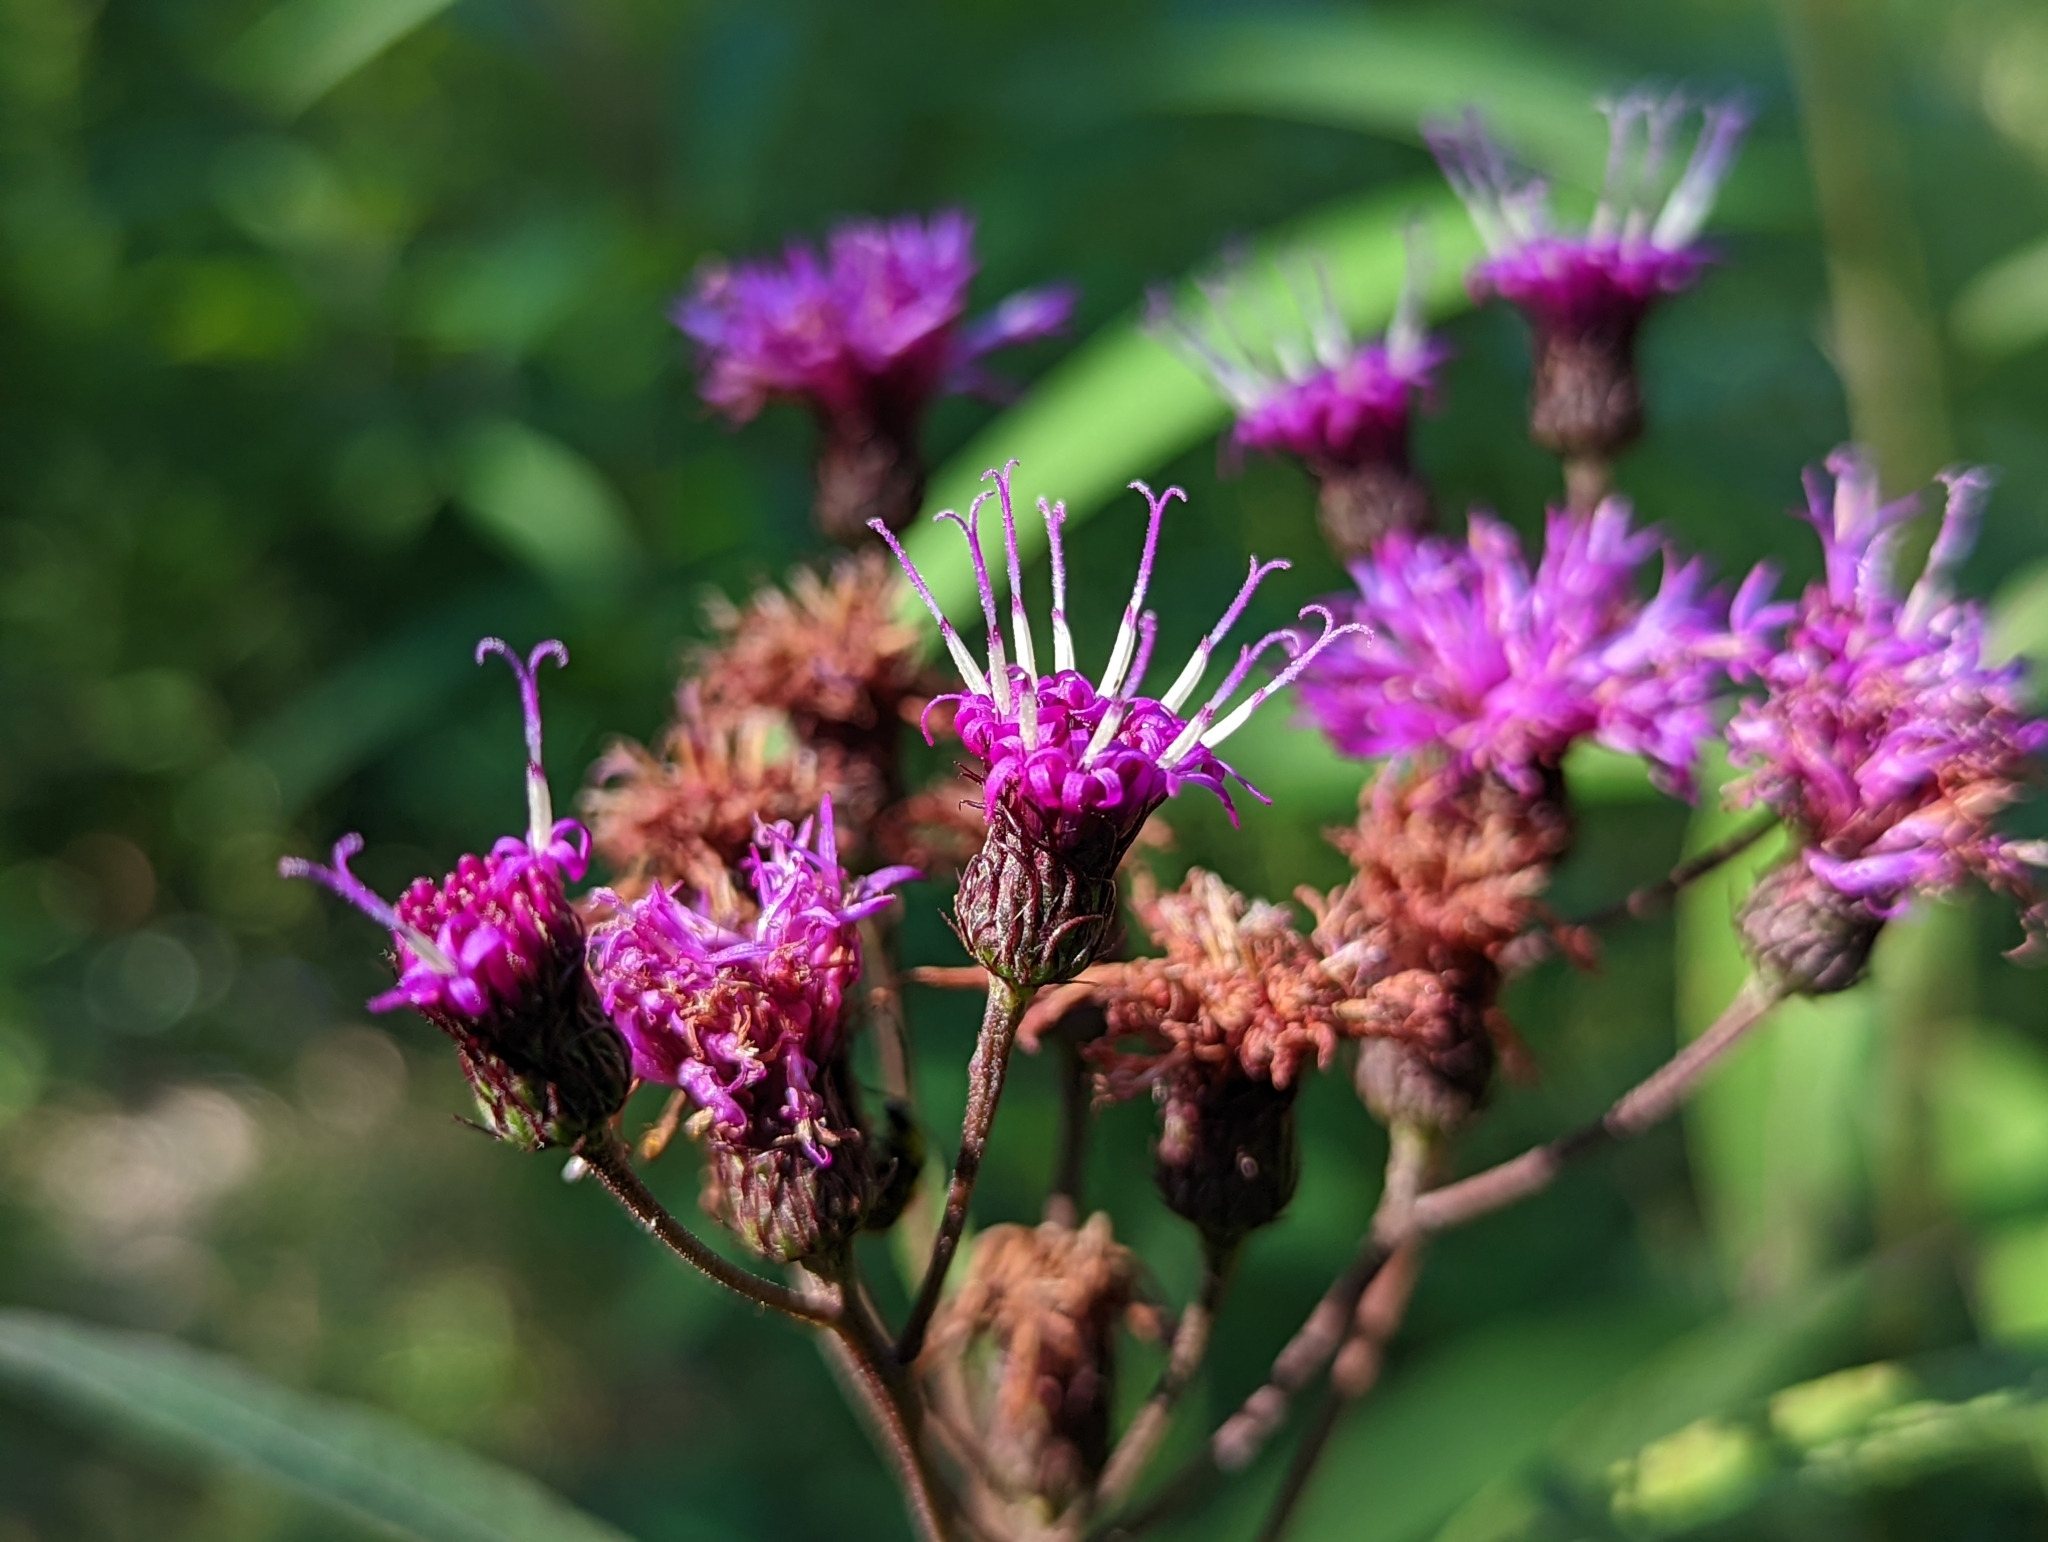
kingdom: Plantae
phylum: Tracheophyta
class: Magnoliopsida
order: Asterales
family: Asteraceae
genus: Vernonia
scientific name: Vernonia noveboracensis
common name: New york ironweed
